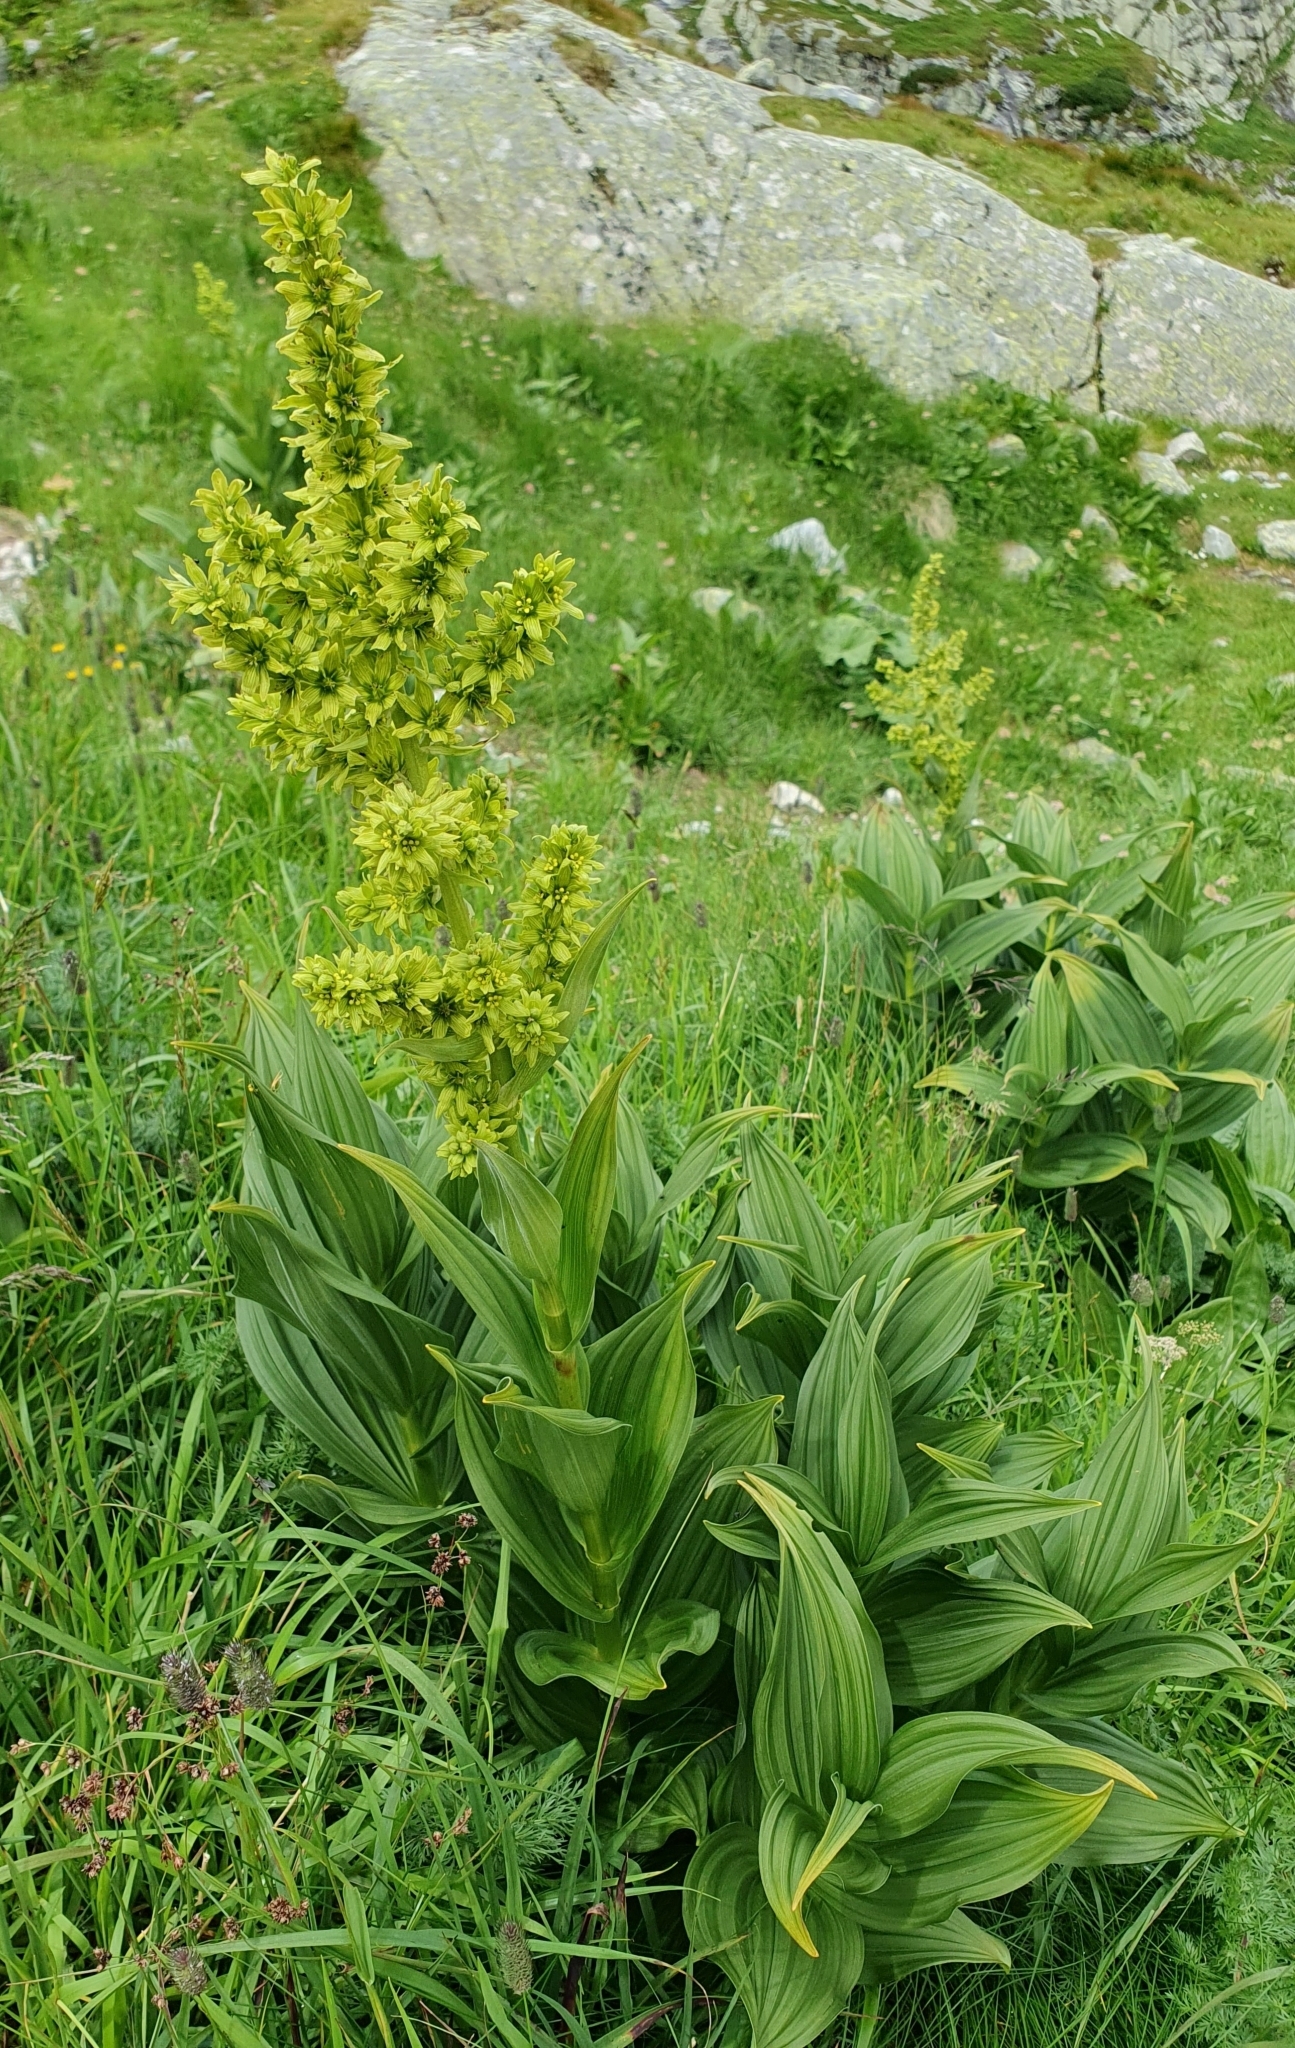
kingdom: Plantae
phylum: Tracheophyta
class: Liliopsida
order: Liliales
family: Melanthiaceae
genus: Veratrum
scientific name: Veratrum lobelianum
